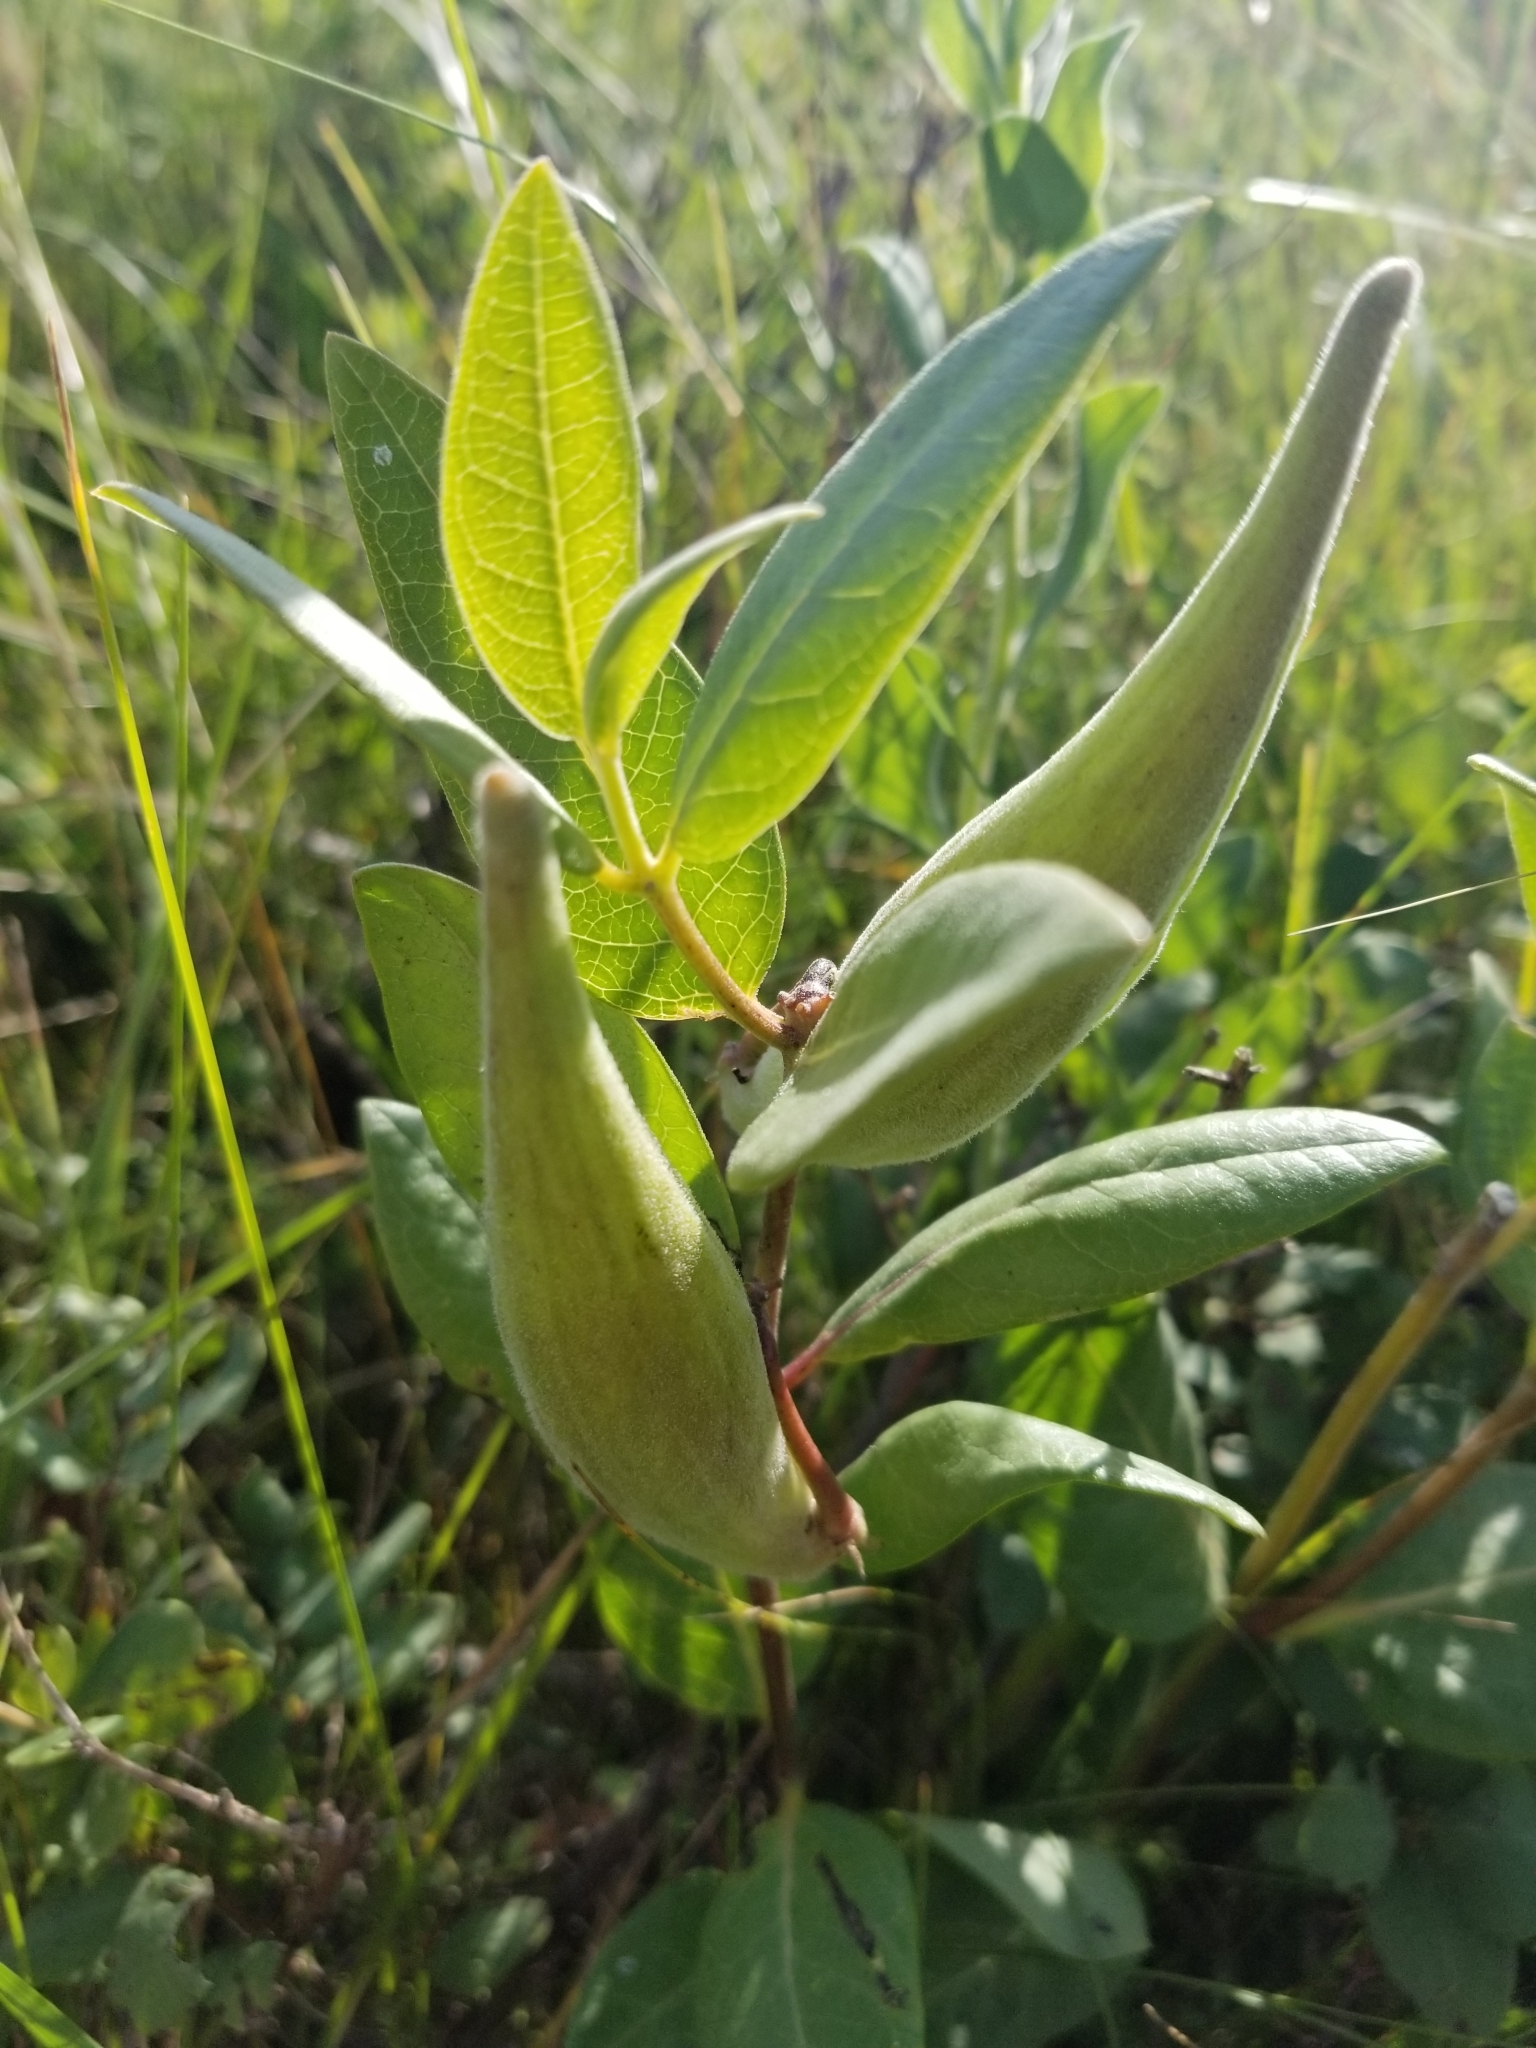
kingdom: Plantae
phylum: Tracheophyta
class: Magnoliopsida
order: Gentianales
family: Apocynaceae
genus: Asclepias
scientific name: Asclepias ovalifolia
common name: Dwarf milkweed
